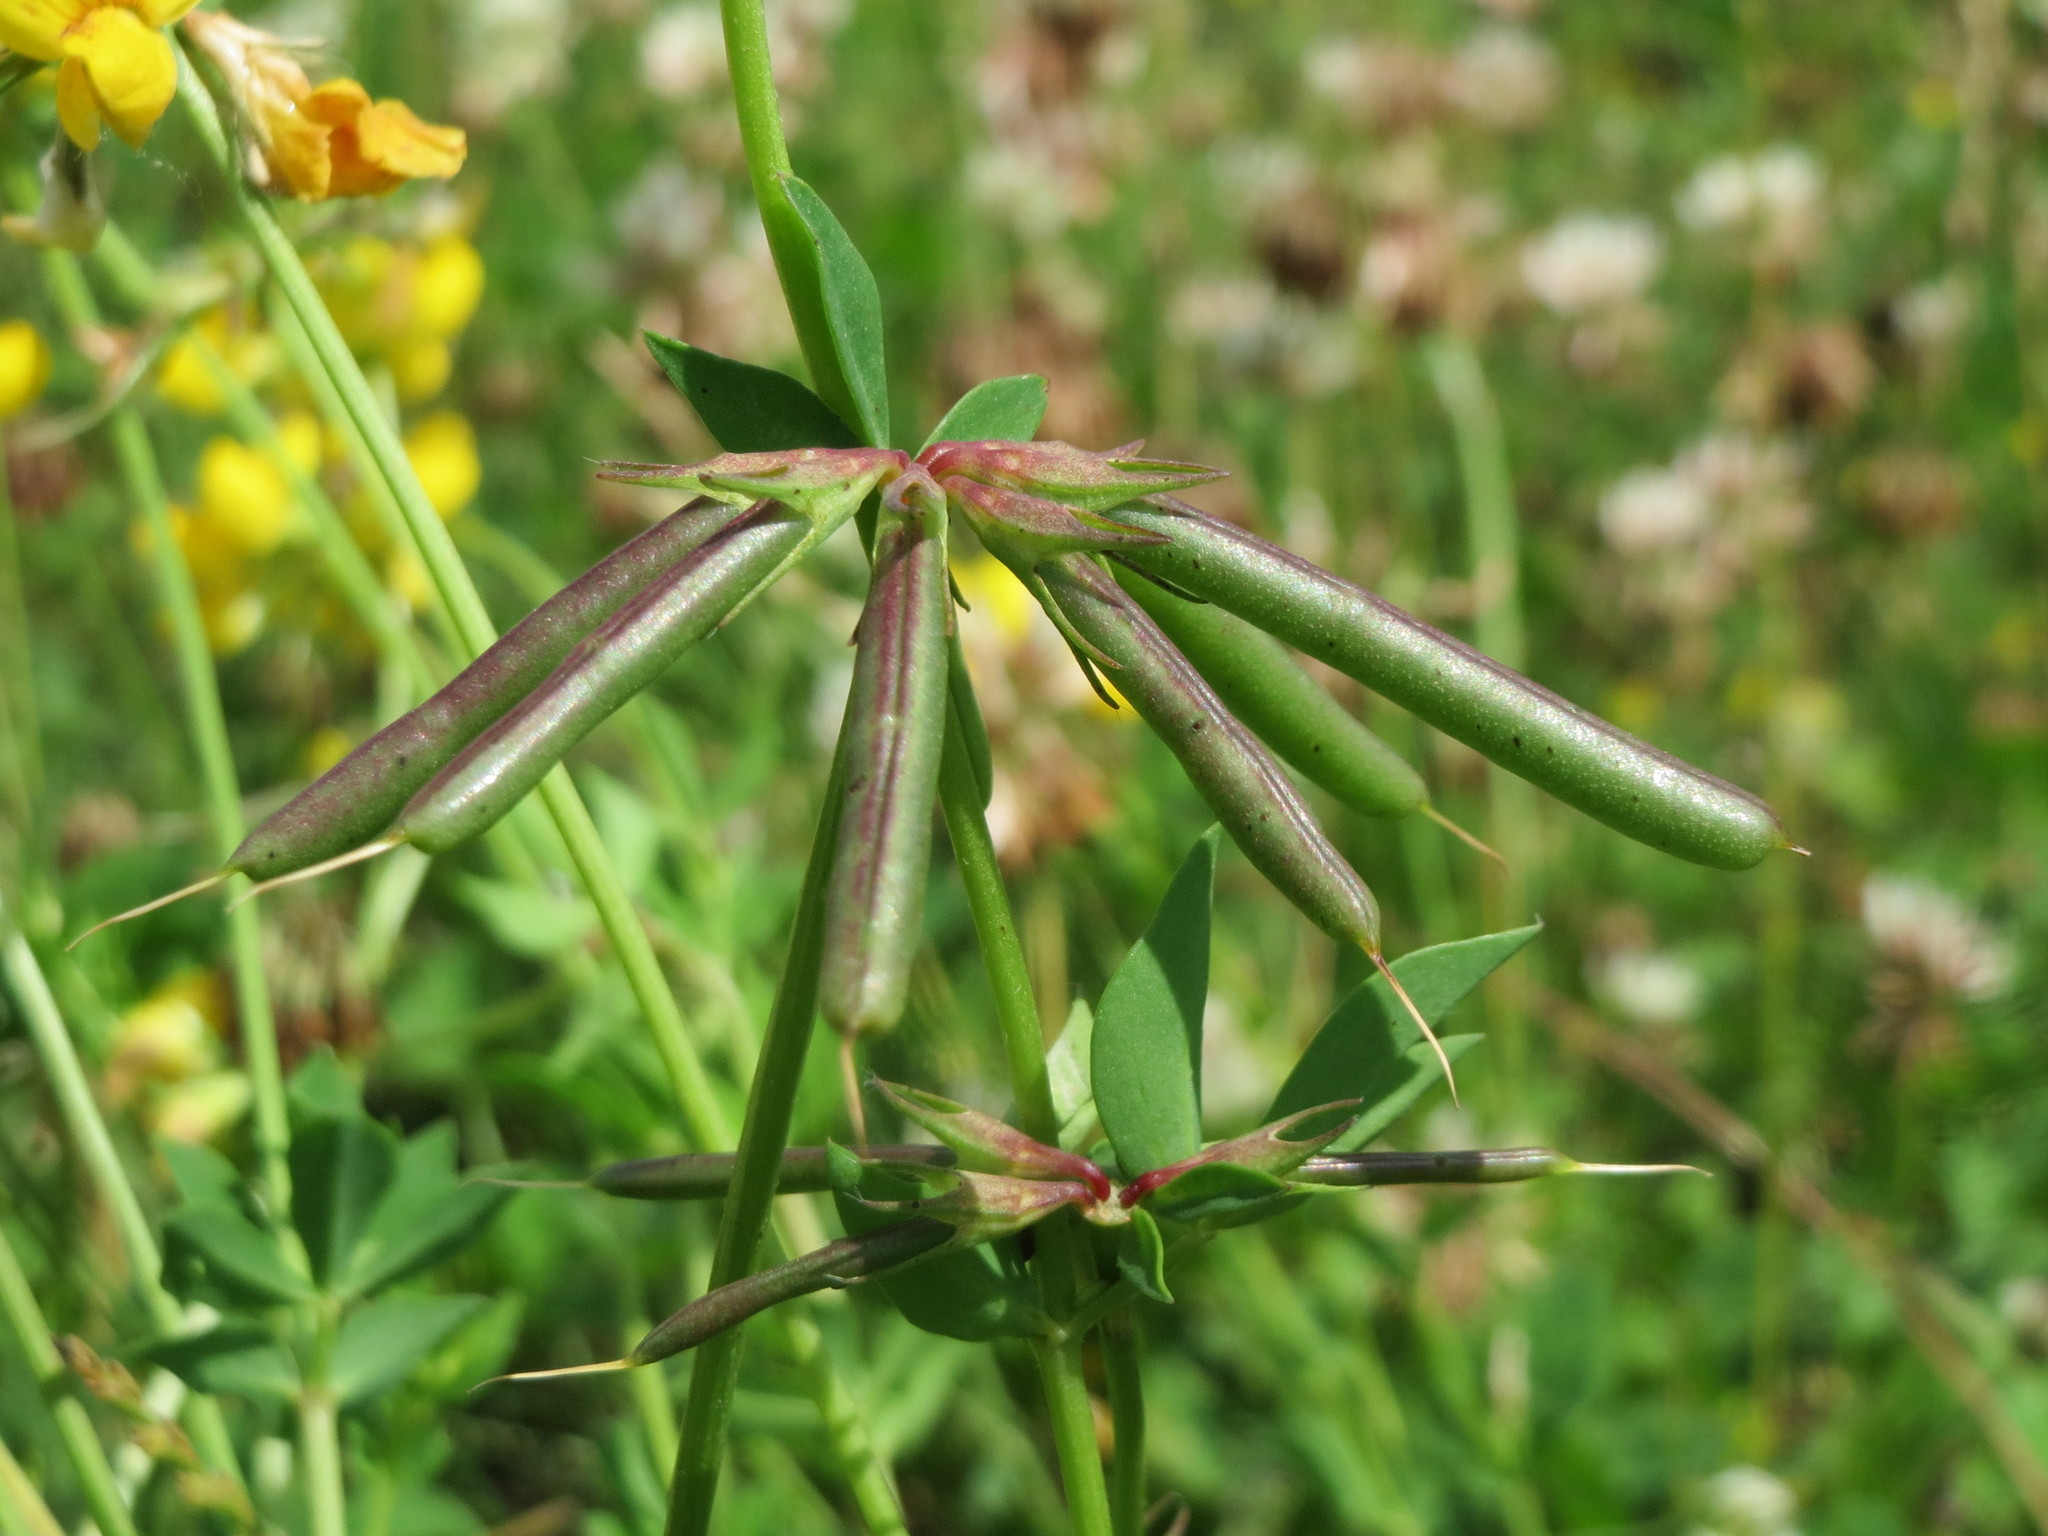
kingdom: Plantae
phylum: Tracheophyta
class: Magnoliopsida
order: Fabales
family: Fabaceae
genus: Lotus
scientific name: Lotus corniculatus
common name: Common bird's-foot-trefoil
